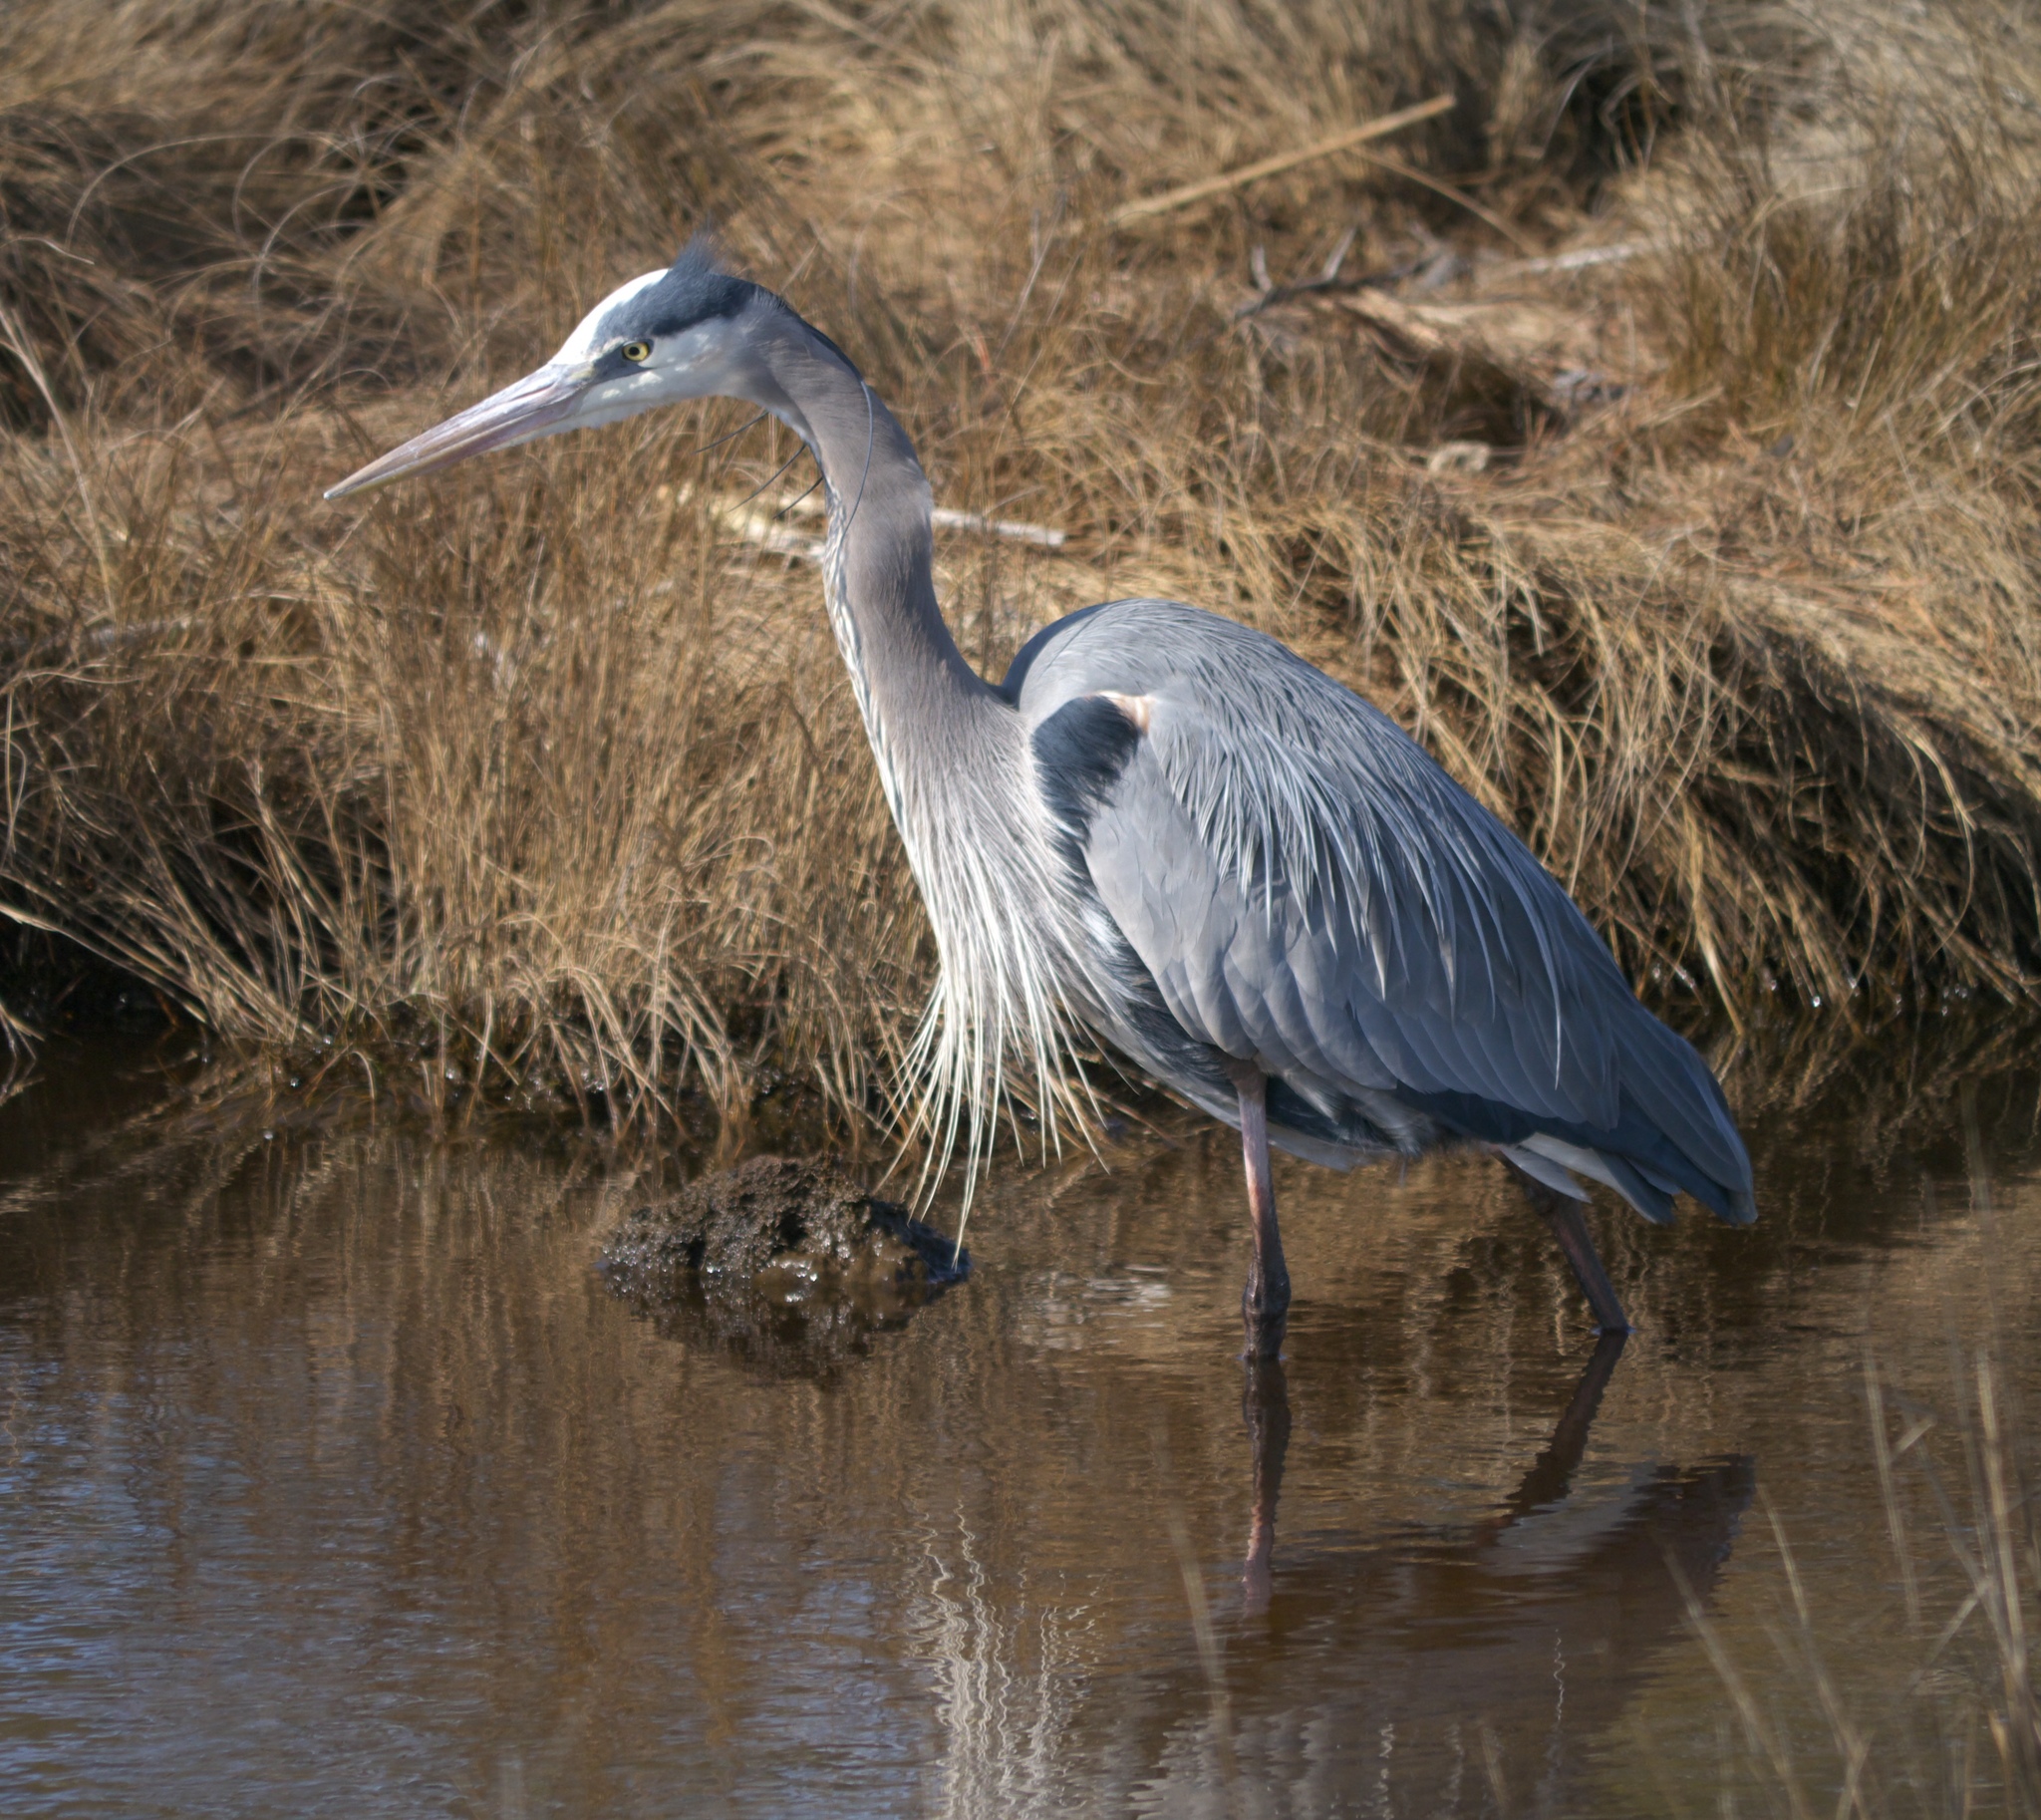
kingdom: Animalia
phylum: Chordata
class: Aves
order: Pelecaniformes
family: Ardeidae
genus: Ardea
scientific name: Ardea herodias
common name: Great blue heron
